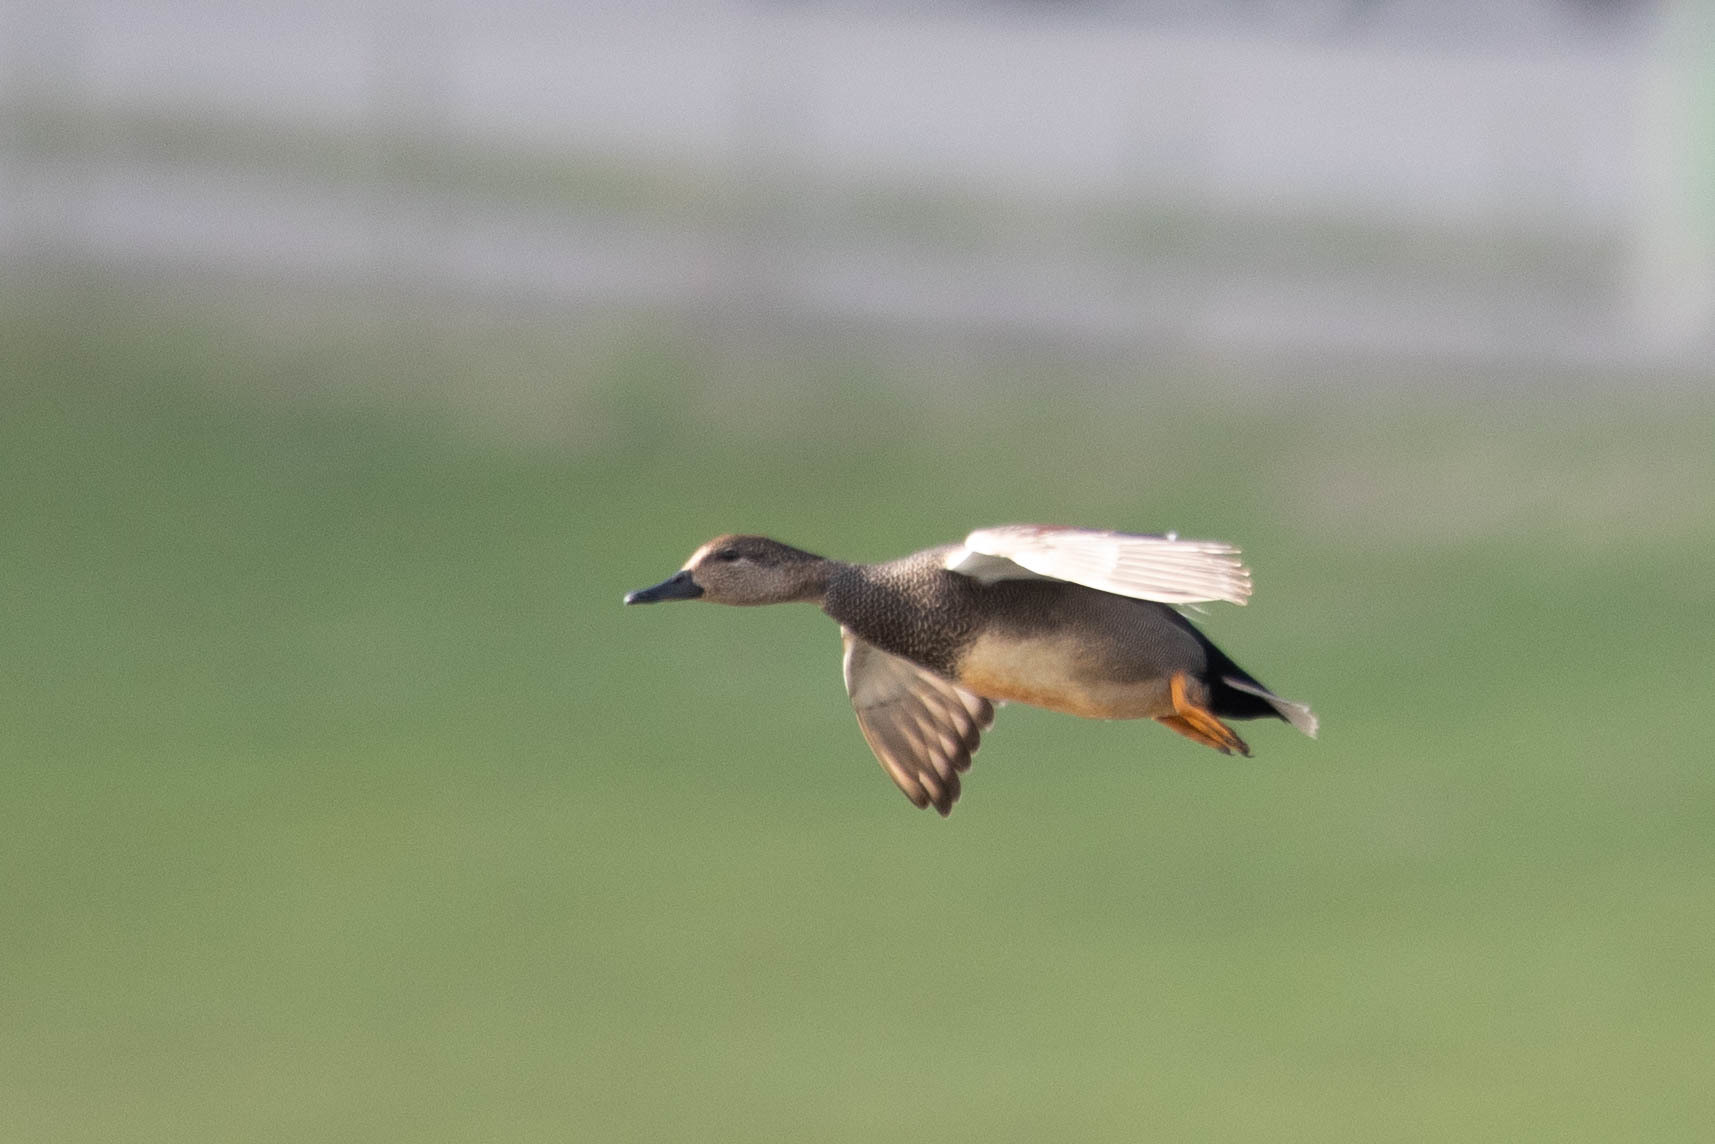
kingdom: Animalia
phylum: Chordata
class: Aves
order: Anseriformes
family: Anatidae
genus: Mareca
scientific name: Mareca strepera
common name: Gadwall
